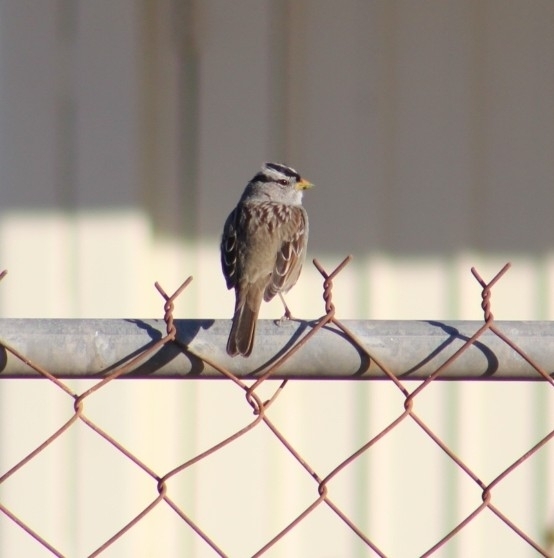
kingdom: Animalia
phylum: Chordata
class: Aves
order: Passeriformes
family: Passerellidae
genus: Zonotrichia
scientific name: Zonotrichia leucophrys
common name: White-crowned sparrow
